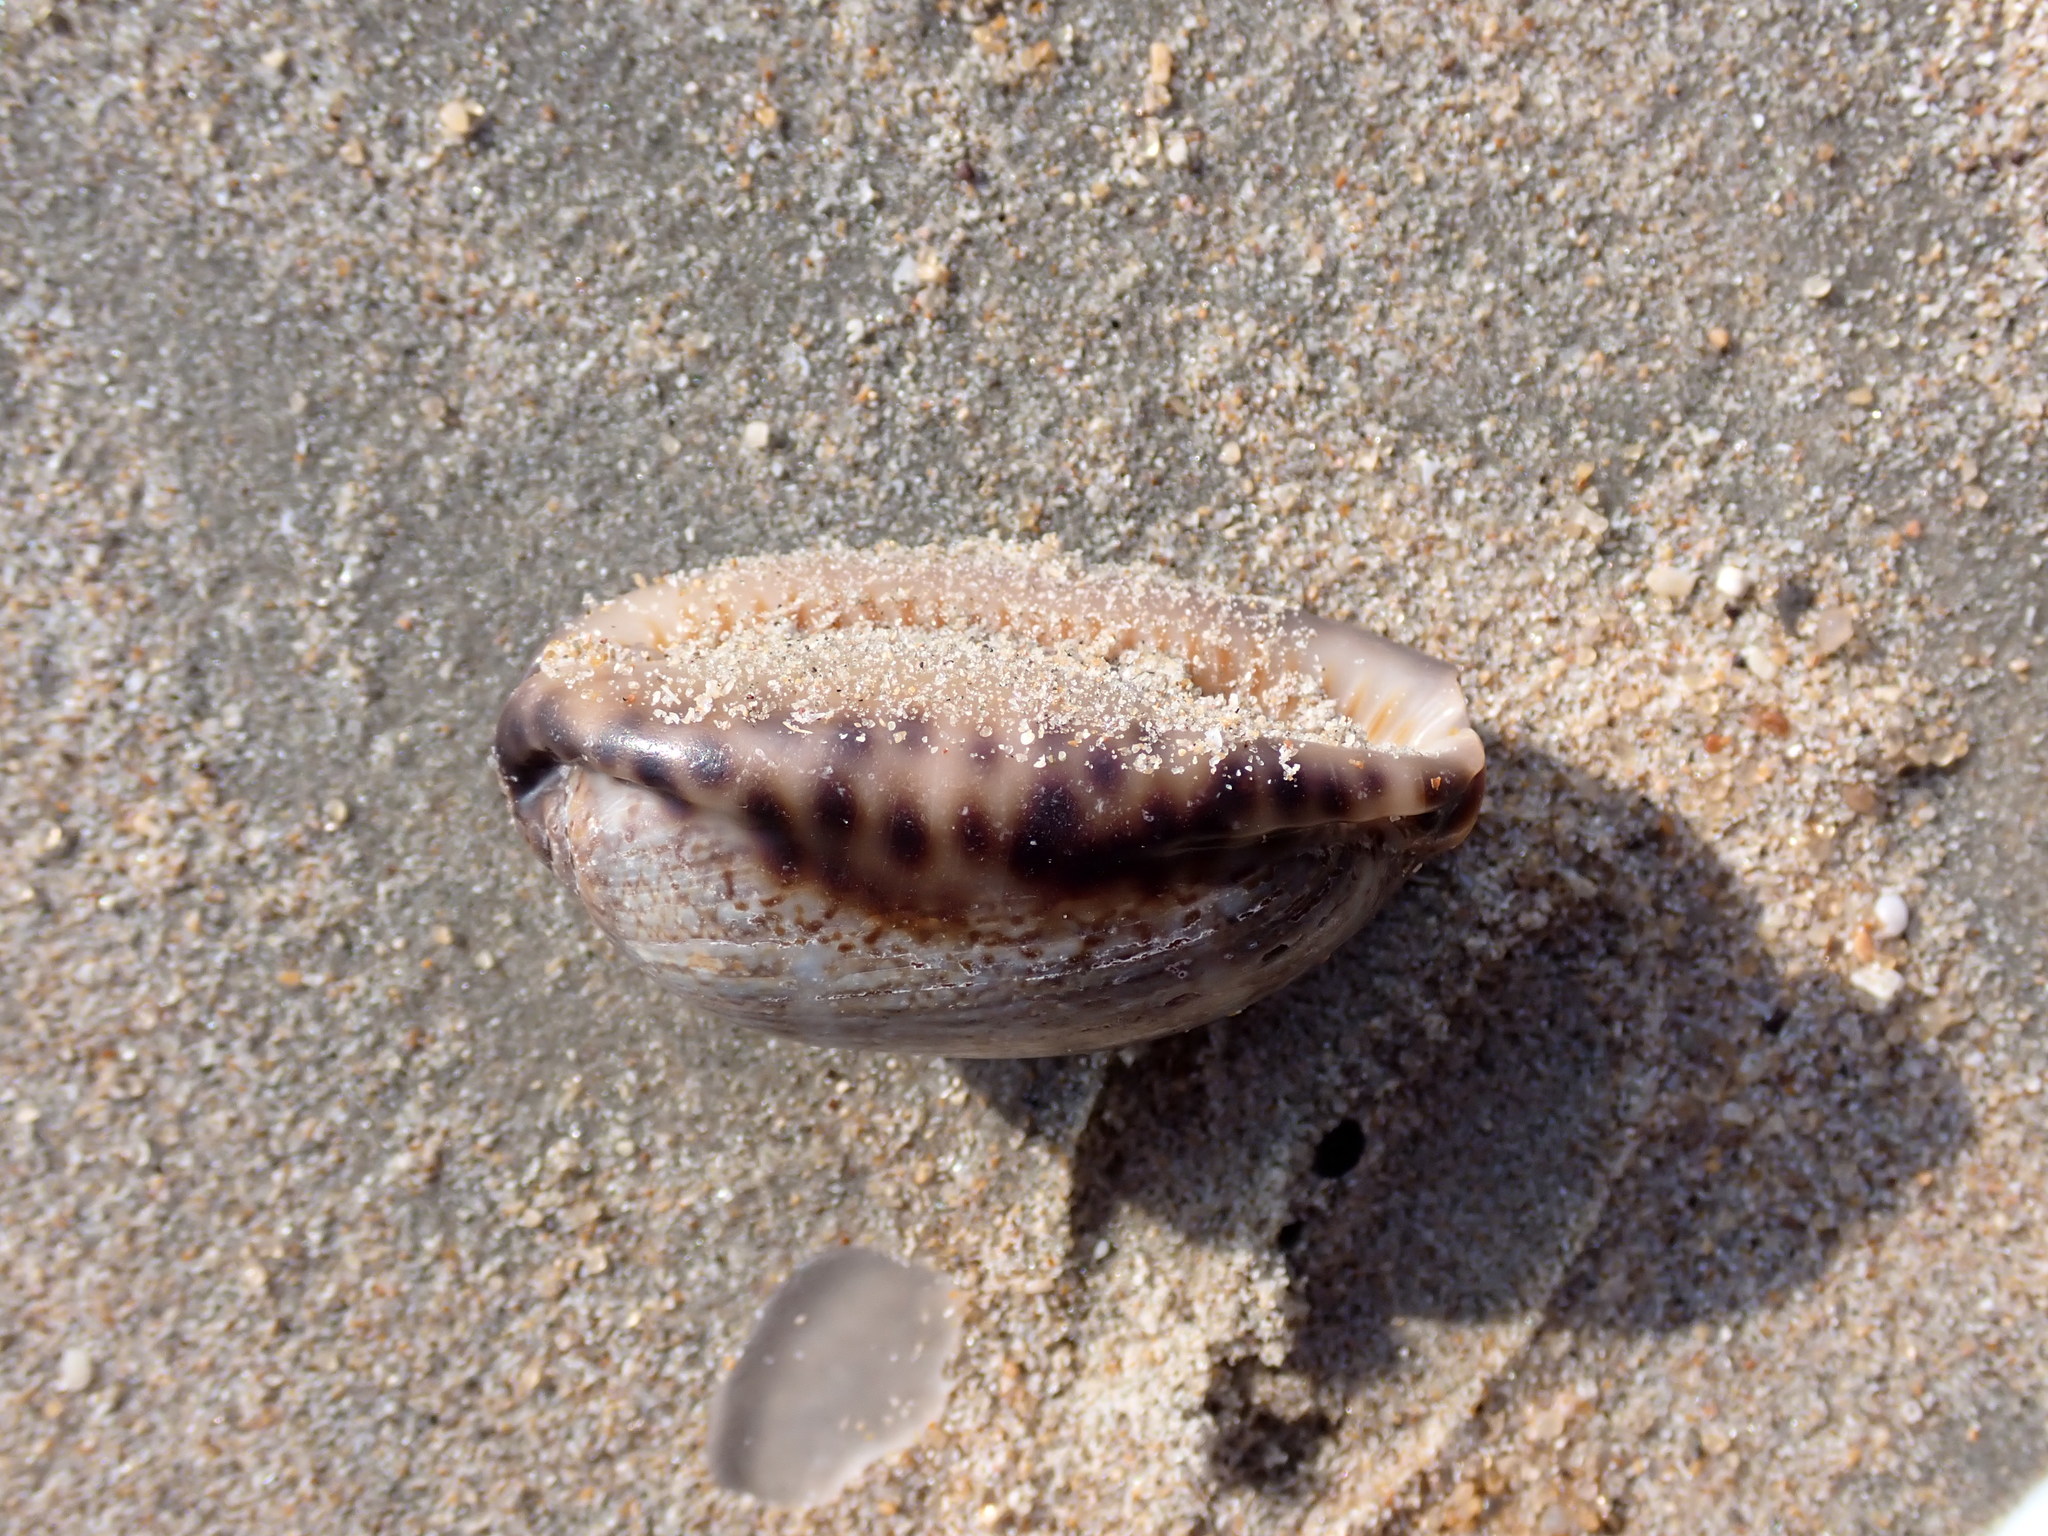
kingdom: Animalia
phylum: Mollusca
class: Gastropoda
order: Littorinimorpha
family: Cypraeidae
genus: Mauritia
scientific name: Mauritia arabica
